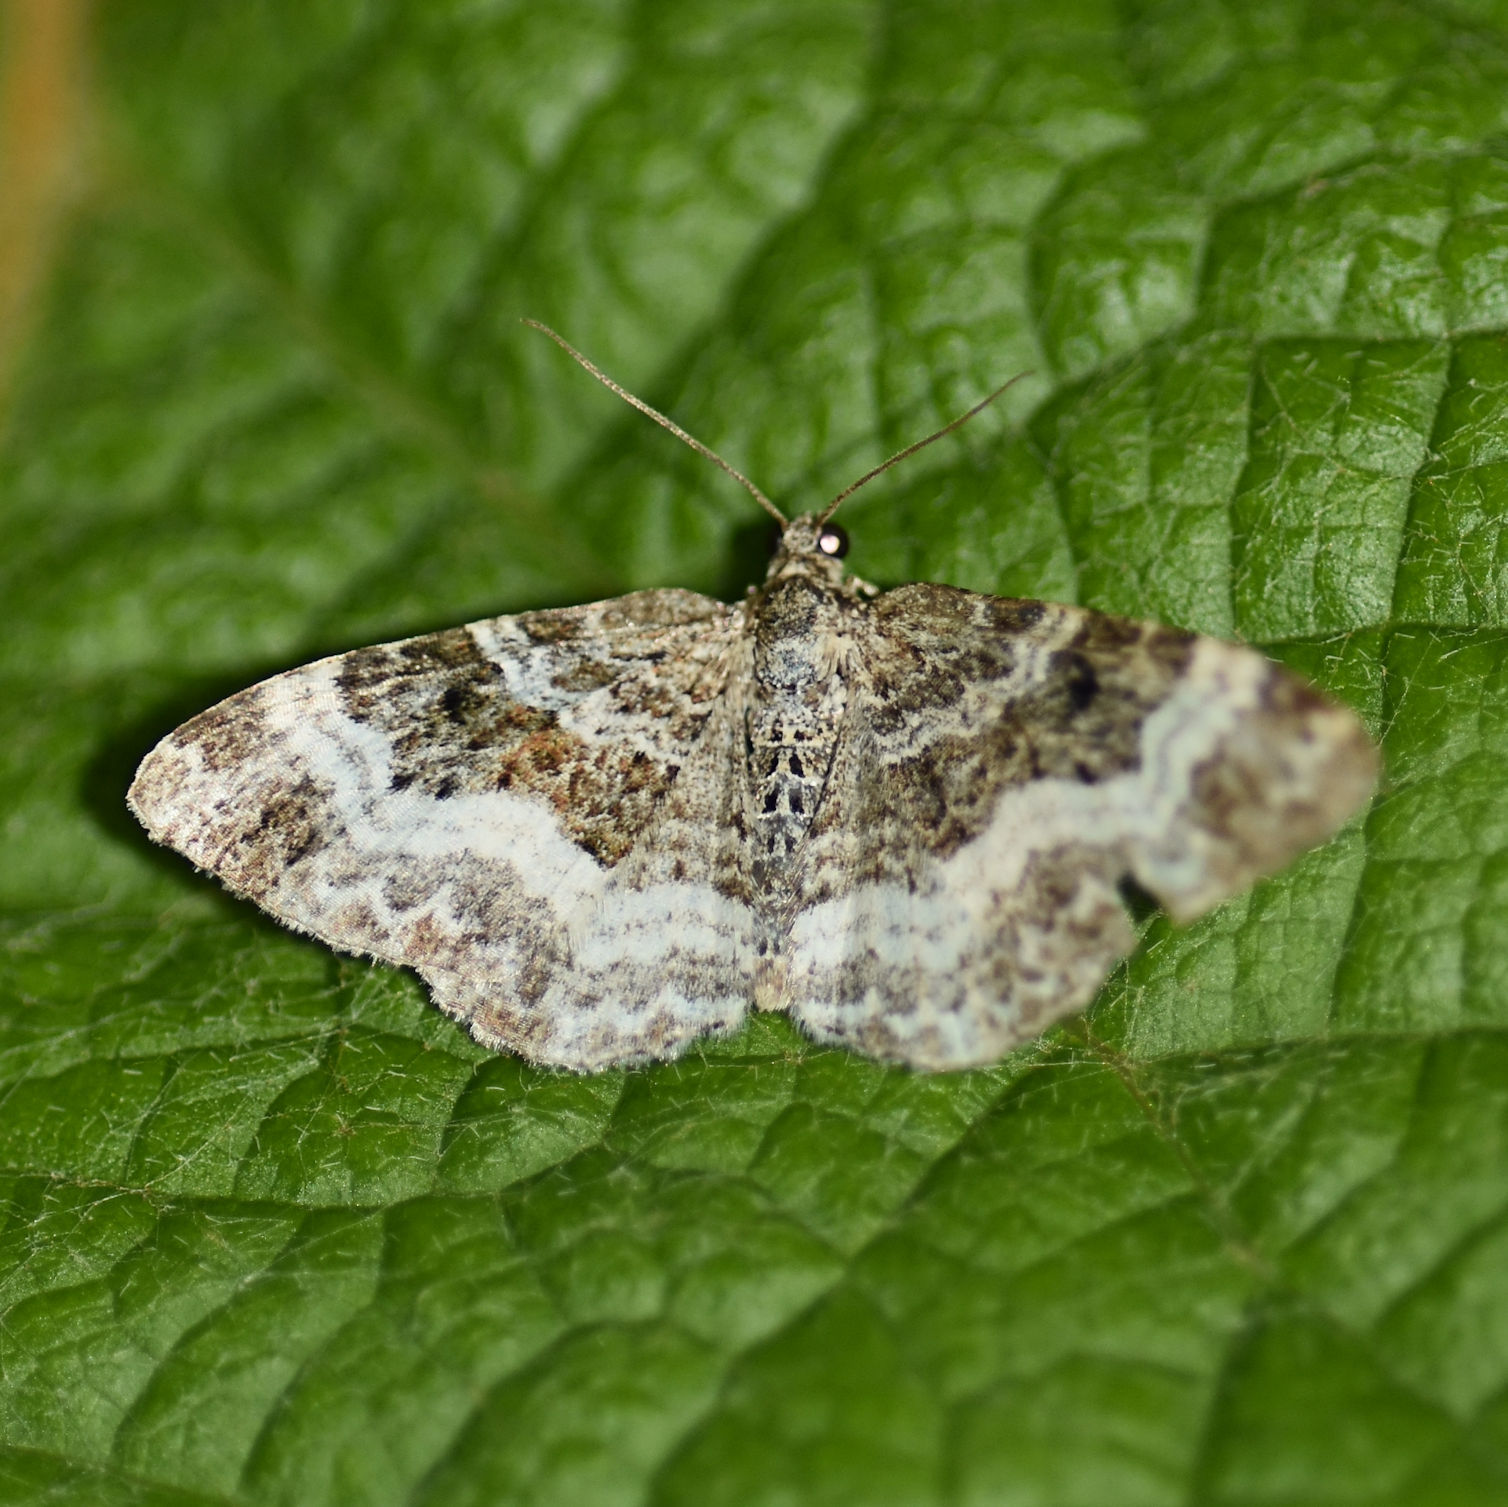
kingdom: Animalia
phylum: Arthropoda
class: Insecta
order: Lepidoptera
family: Geometridae
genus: Epirrhoe
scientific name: Epirrhoe alternata
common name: Common carpet
